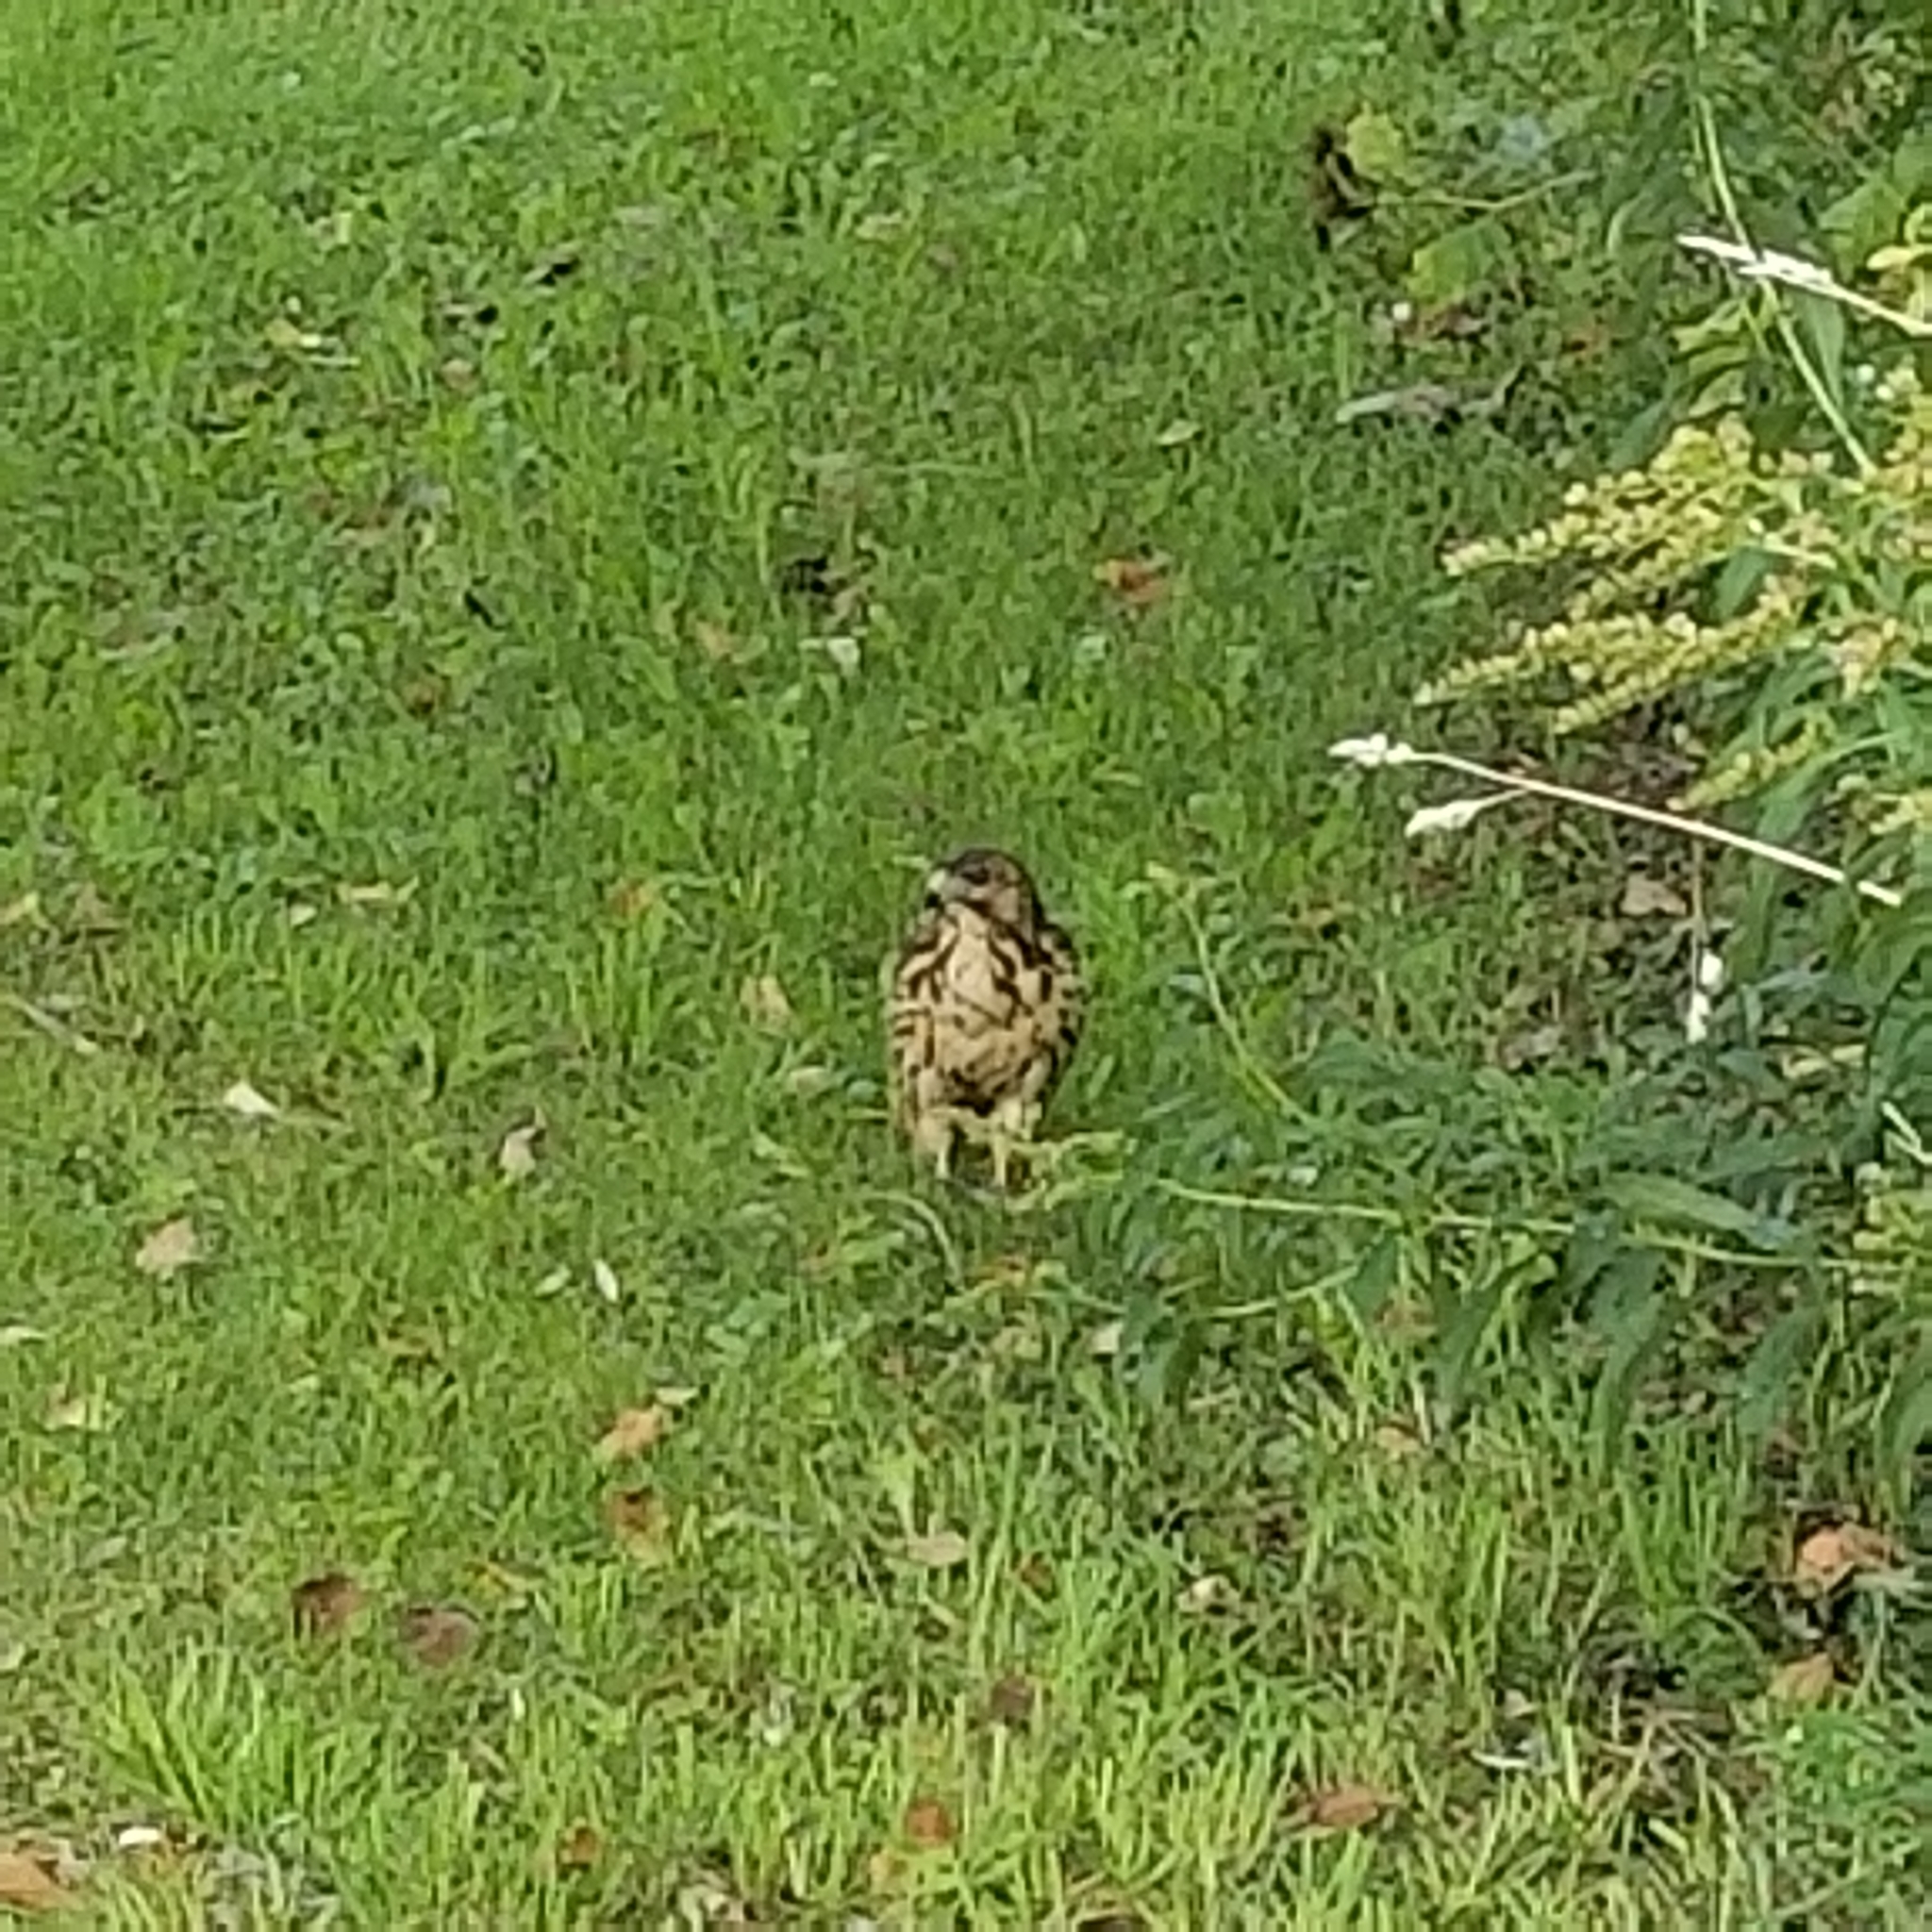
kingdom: Animalia
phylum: Chordata
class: Aves
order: Accipitriformes
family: Accipitridae
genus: Buteo
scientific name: Buteo jamaicensis
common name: Red-tailed hawk
